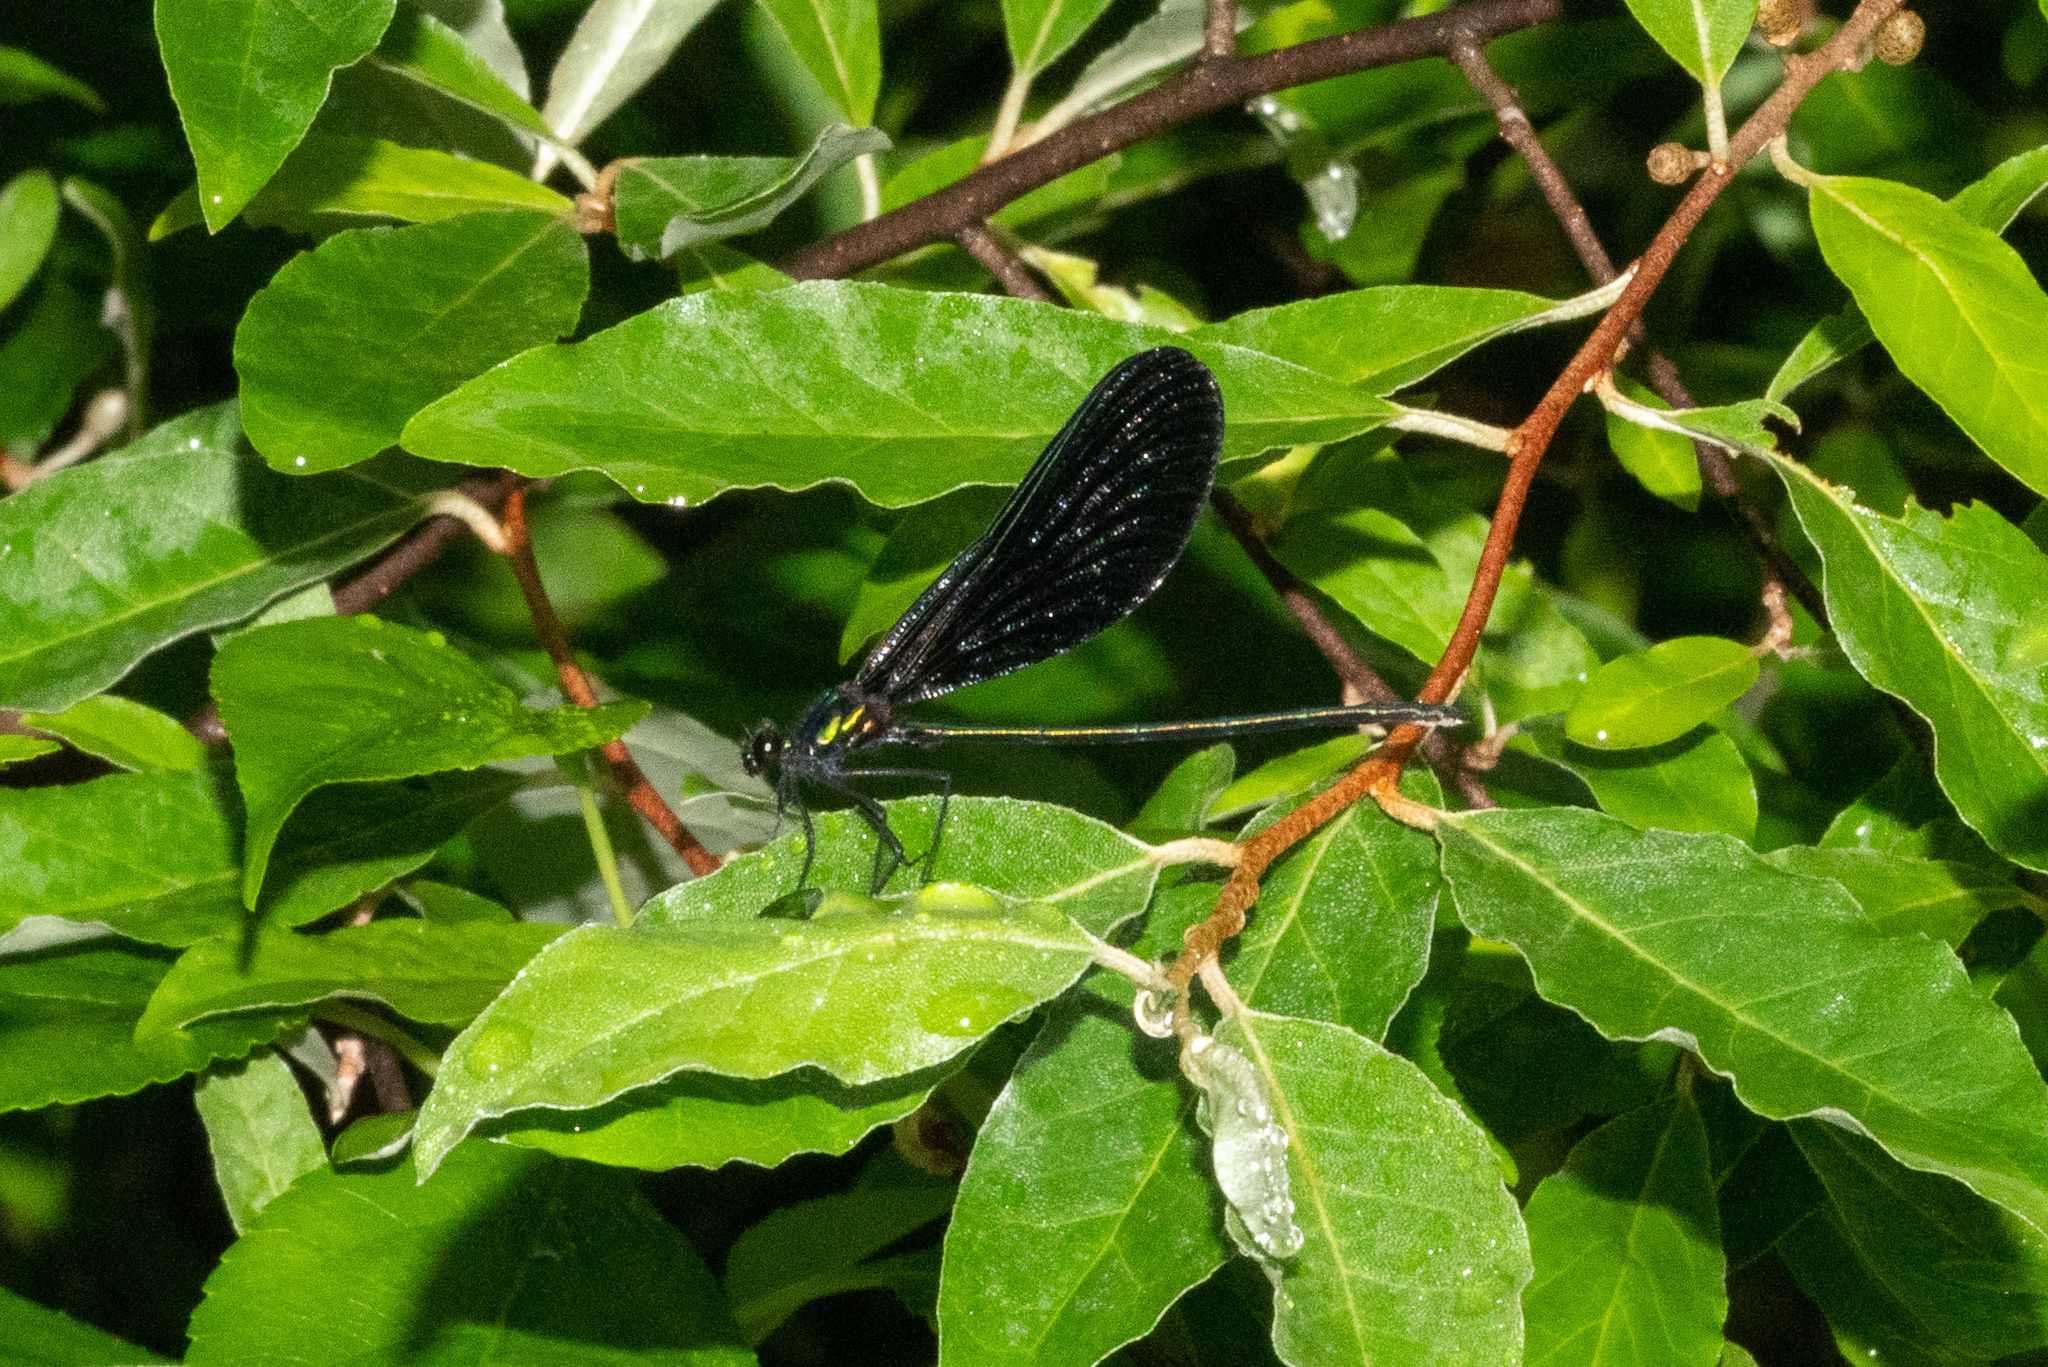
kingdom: Animalia
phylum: Arthropoda
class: Insecta
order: Odonata
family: Calopterygidae
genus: Calopteryx
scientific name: Calopteryx maculata
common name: Ebony jewelwing
